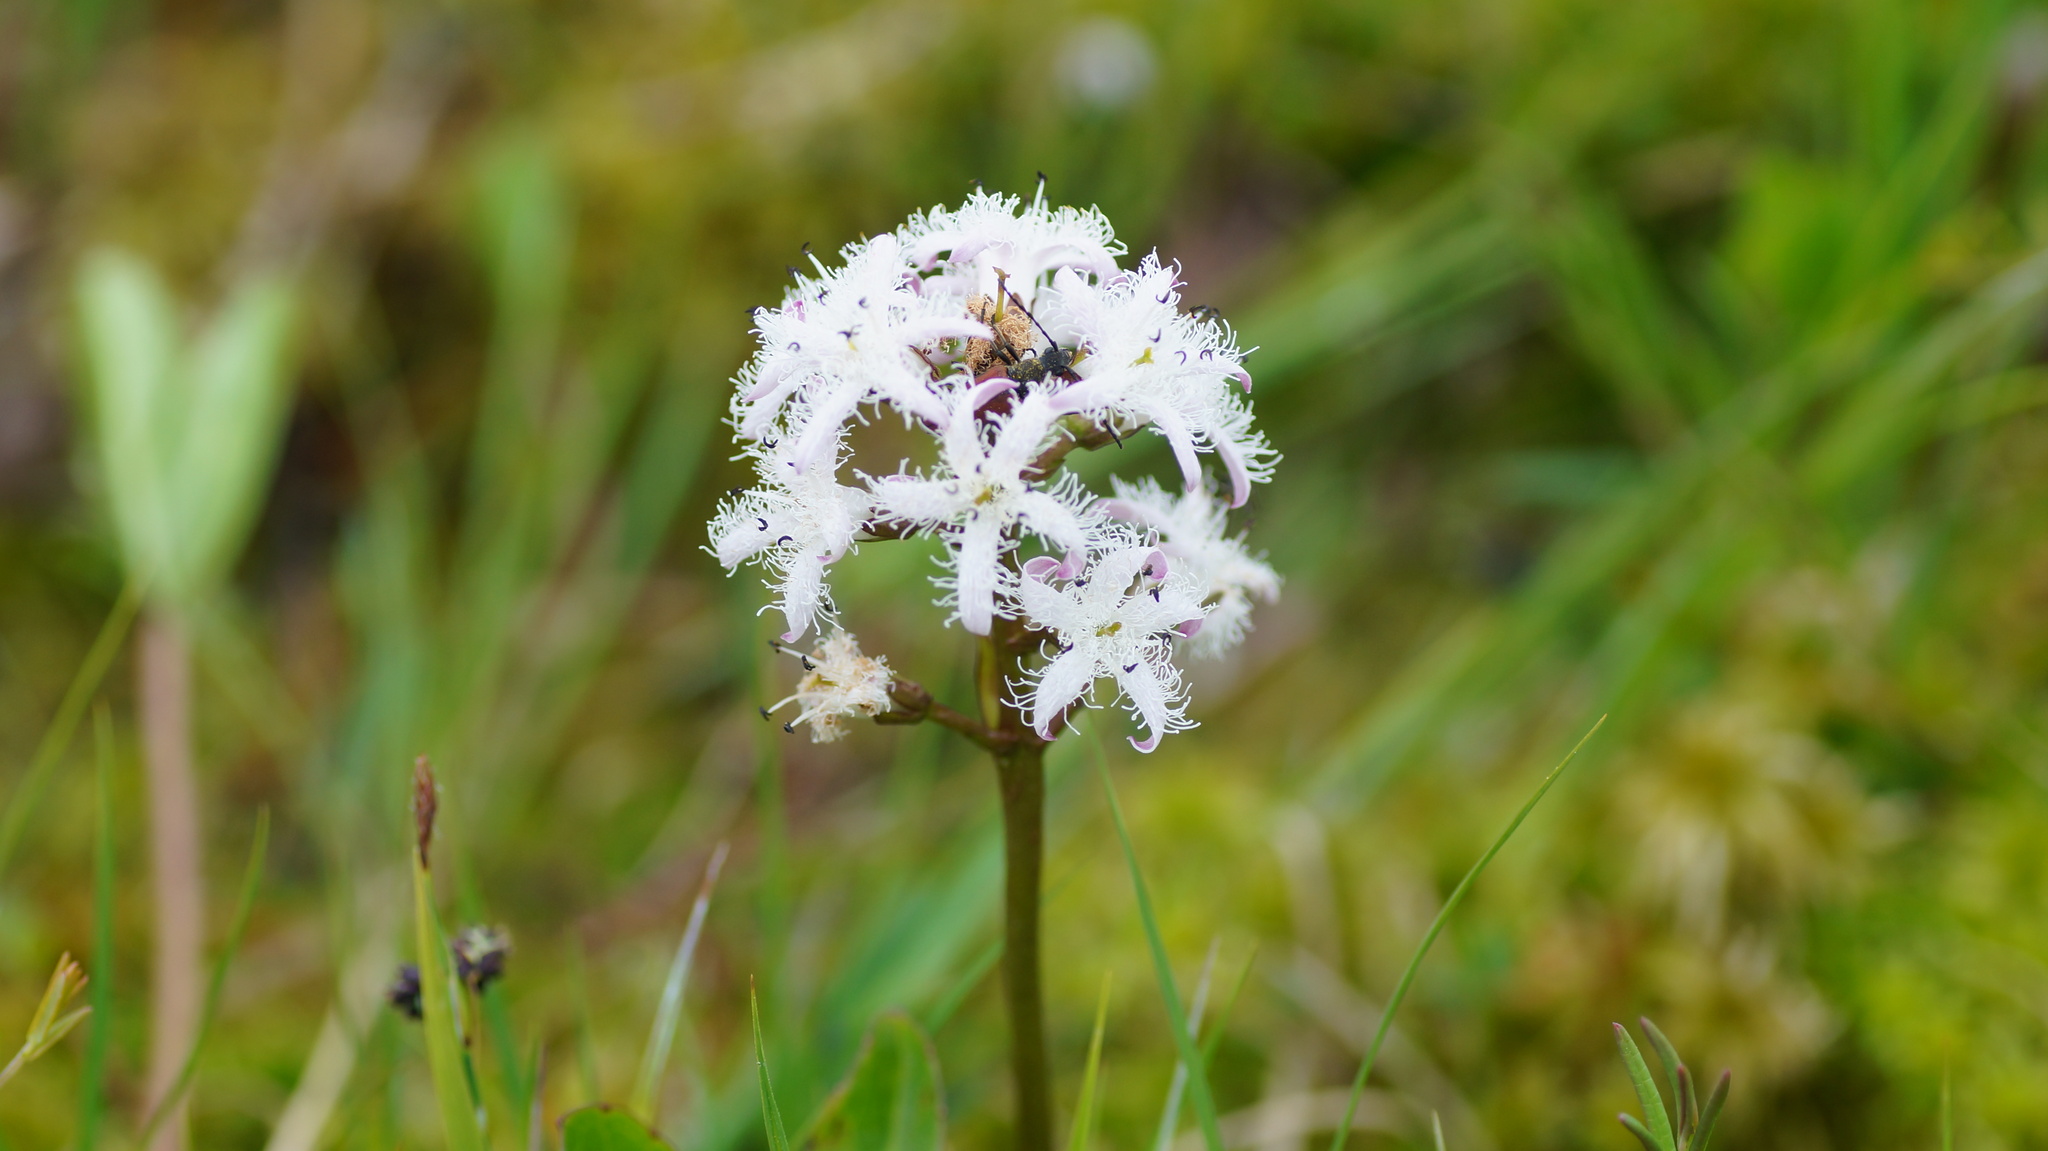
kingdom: Plantae
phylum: Tracheophyta
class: Magnoliopsida
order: Asterales
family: Menyanthaceae
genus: Menyanthes
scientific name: Menyanthes trifoliata
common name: Bogbean
